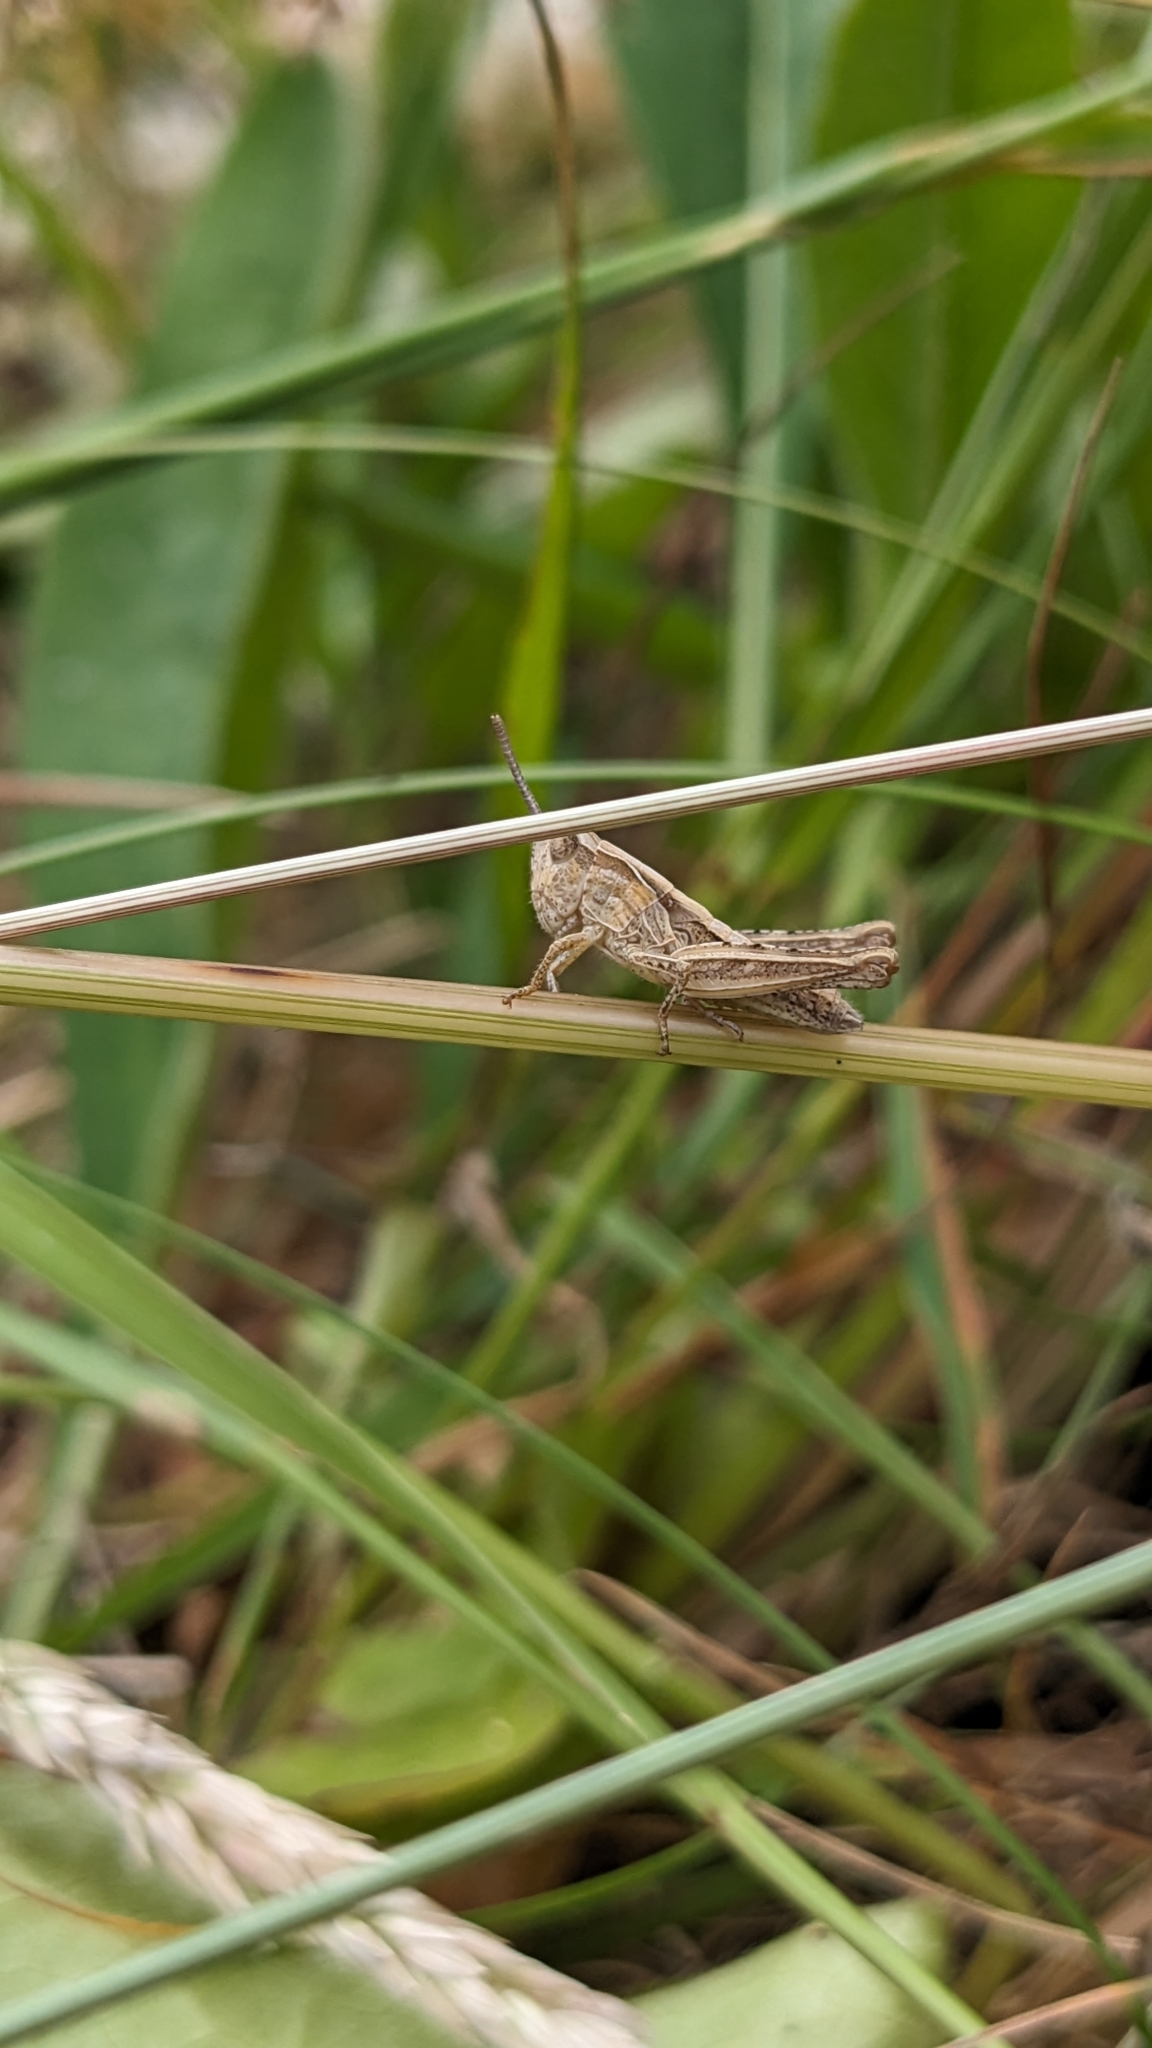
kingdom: Animalia
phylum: Arthropoda
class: Insecta
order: Orthoptera
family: Acrididae
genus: Chorthippus
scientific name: Chorthippus brunneus
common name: Field grasshopper
